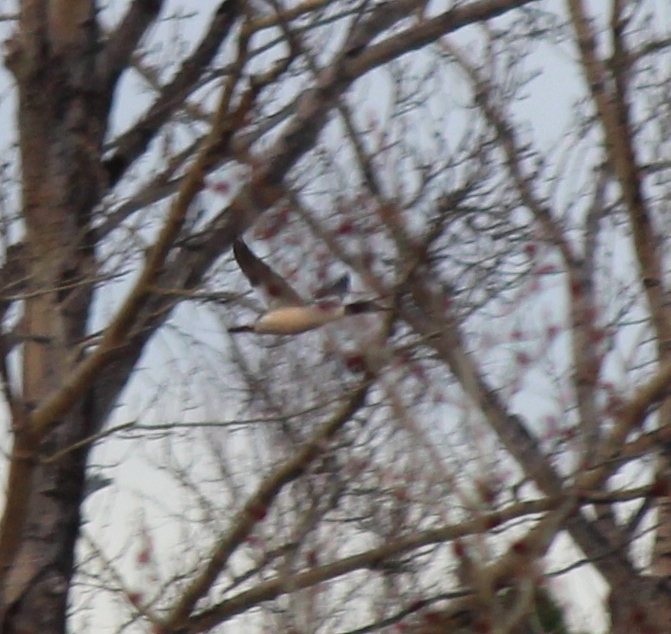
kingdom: Animalia
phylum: Chordata
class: Aves
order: Anseriformes
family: Anatidae
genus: Mergus
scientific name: Mergus merganser
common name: Common merganser
